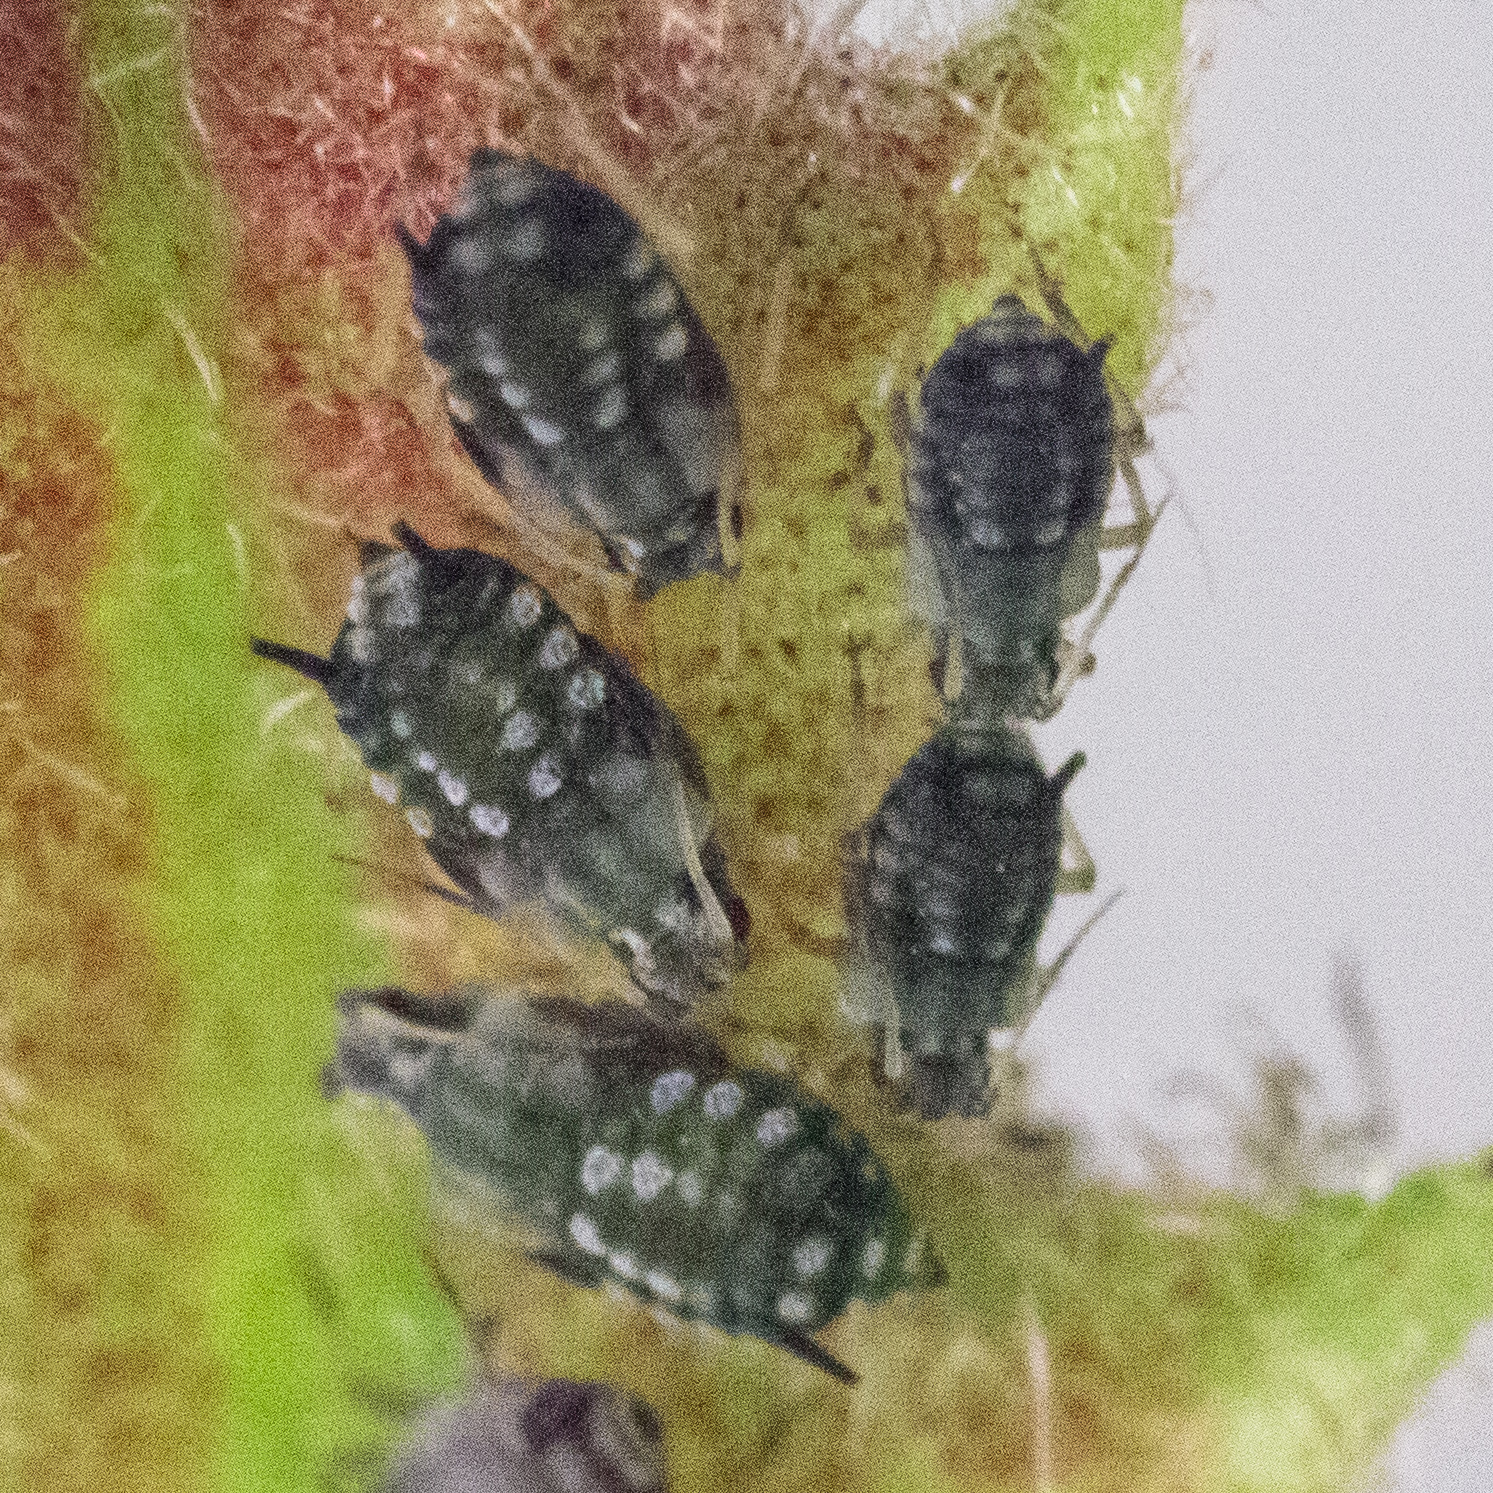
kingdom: Animalia
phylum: Arthropoda
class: Insecta
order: Hemiptera
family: Aphididae
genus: Aphis
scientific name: Aphis
